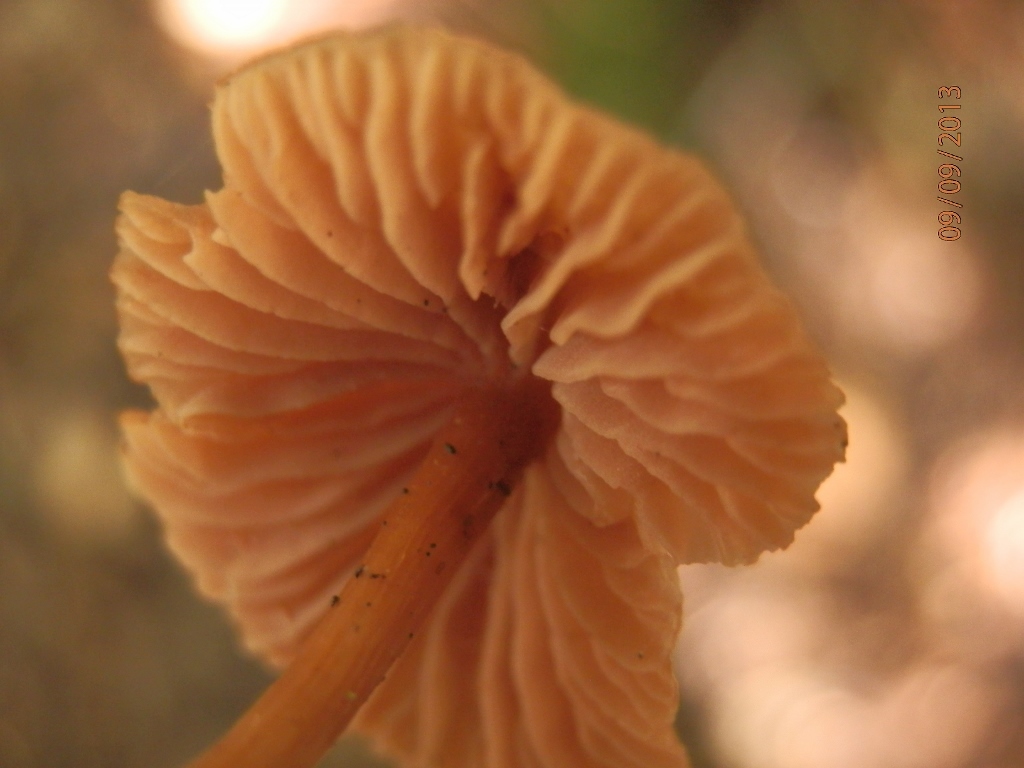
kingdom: Fungi
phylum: Basidiomycota
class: Agaricomycetes
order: Agaricales
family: Hydnangiaceae
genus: Laccaria
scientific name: Laccaria pumila
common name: Willow deceiver
